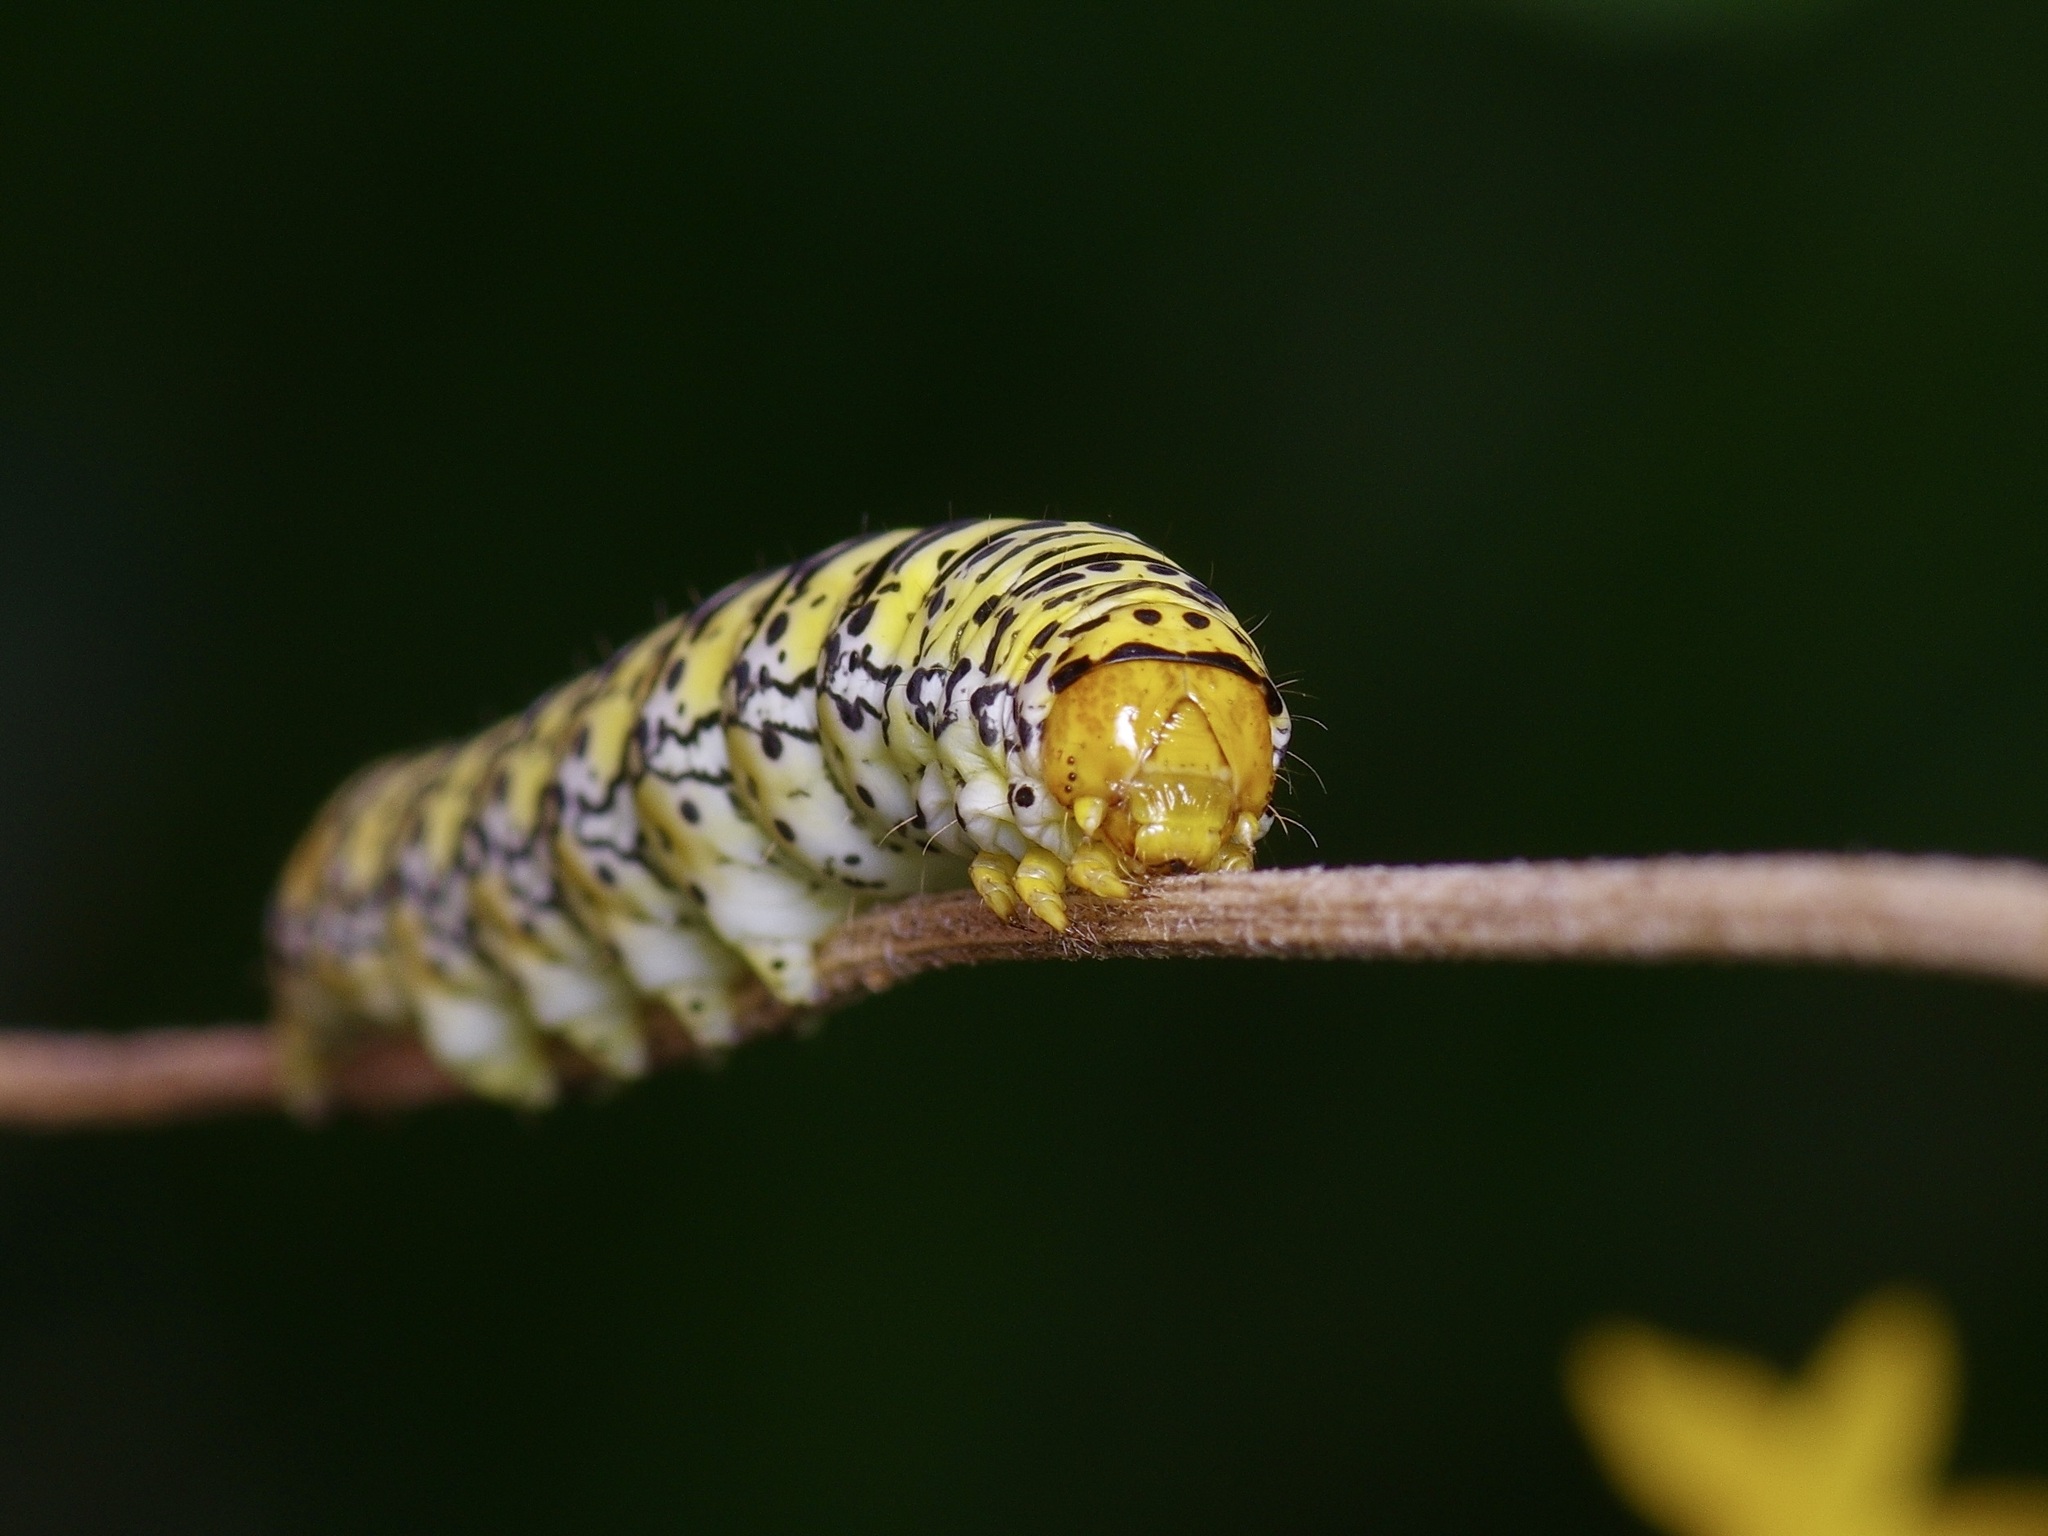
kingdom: Animalia
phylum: Arthropoda
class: Insecta
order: Lepidoptera
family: Noctuidae
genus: Basilodes
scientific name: Basilodes chrysopis
